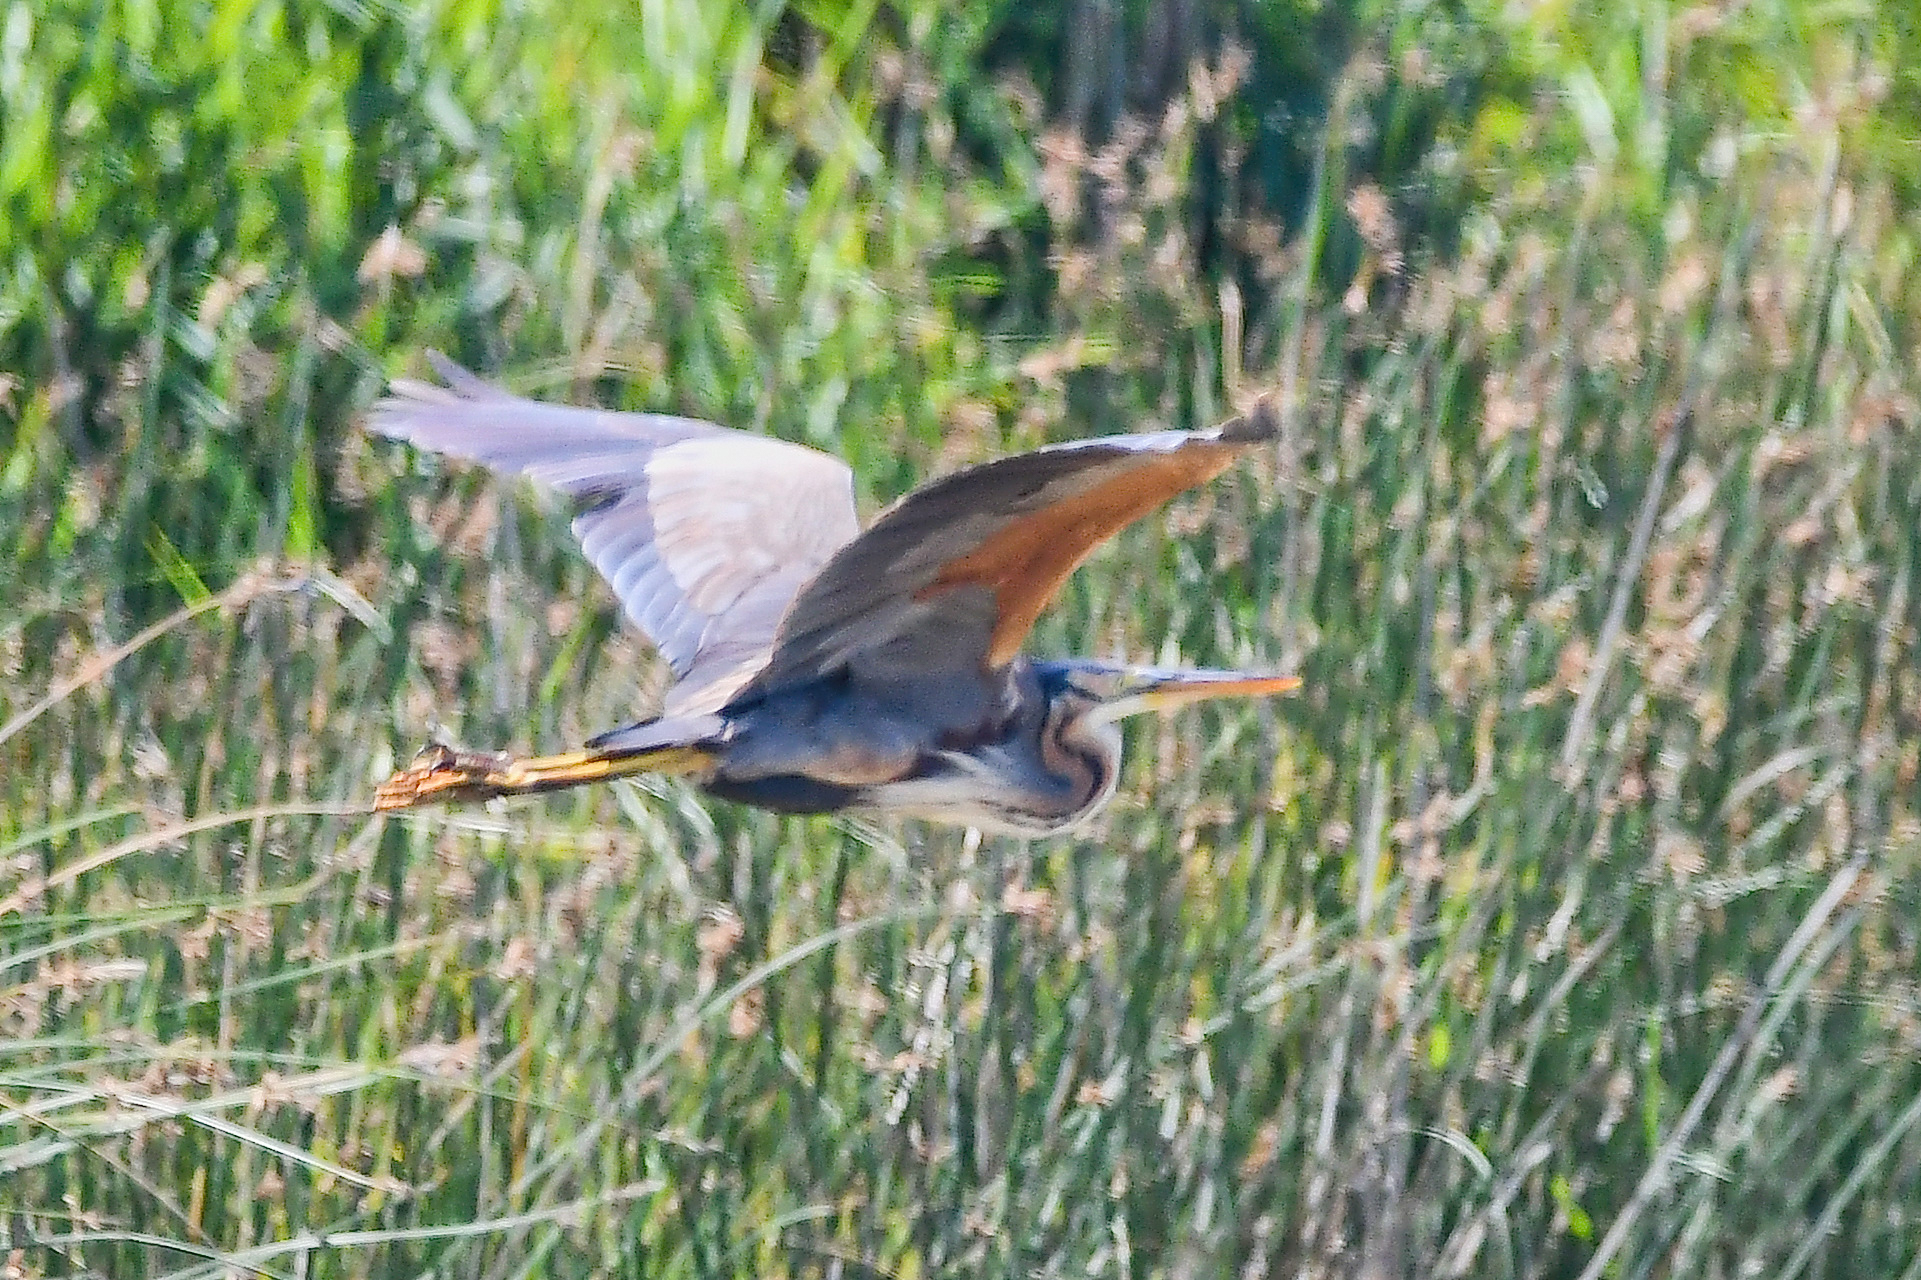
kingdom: Animalia
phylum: Chordata
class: Aves
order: Pelecaniformes
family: Ardeidae
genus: Ardea
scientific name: Ardea purpurea
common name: Purple heron
